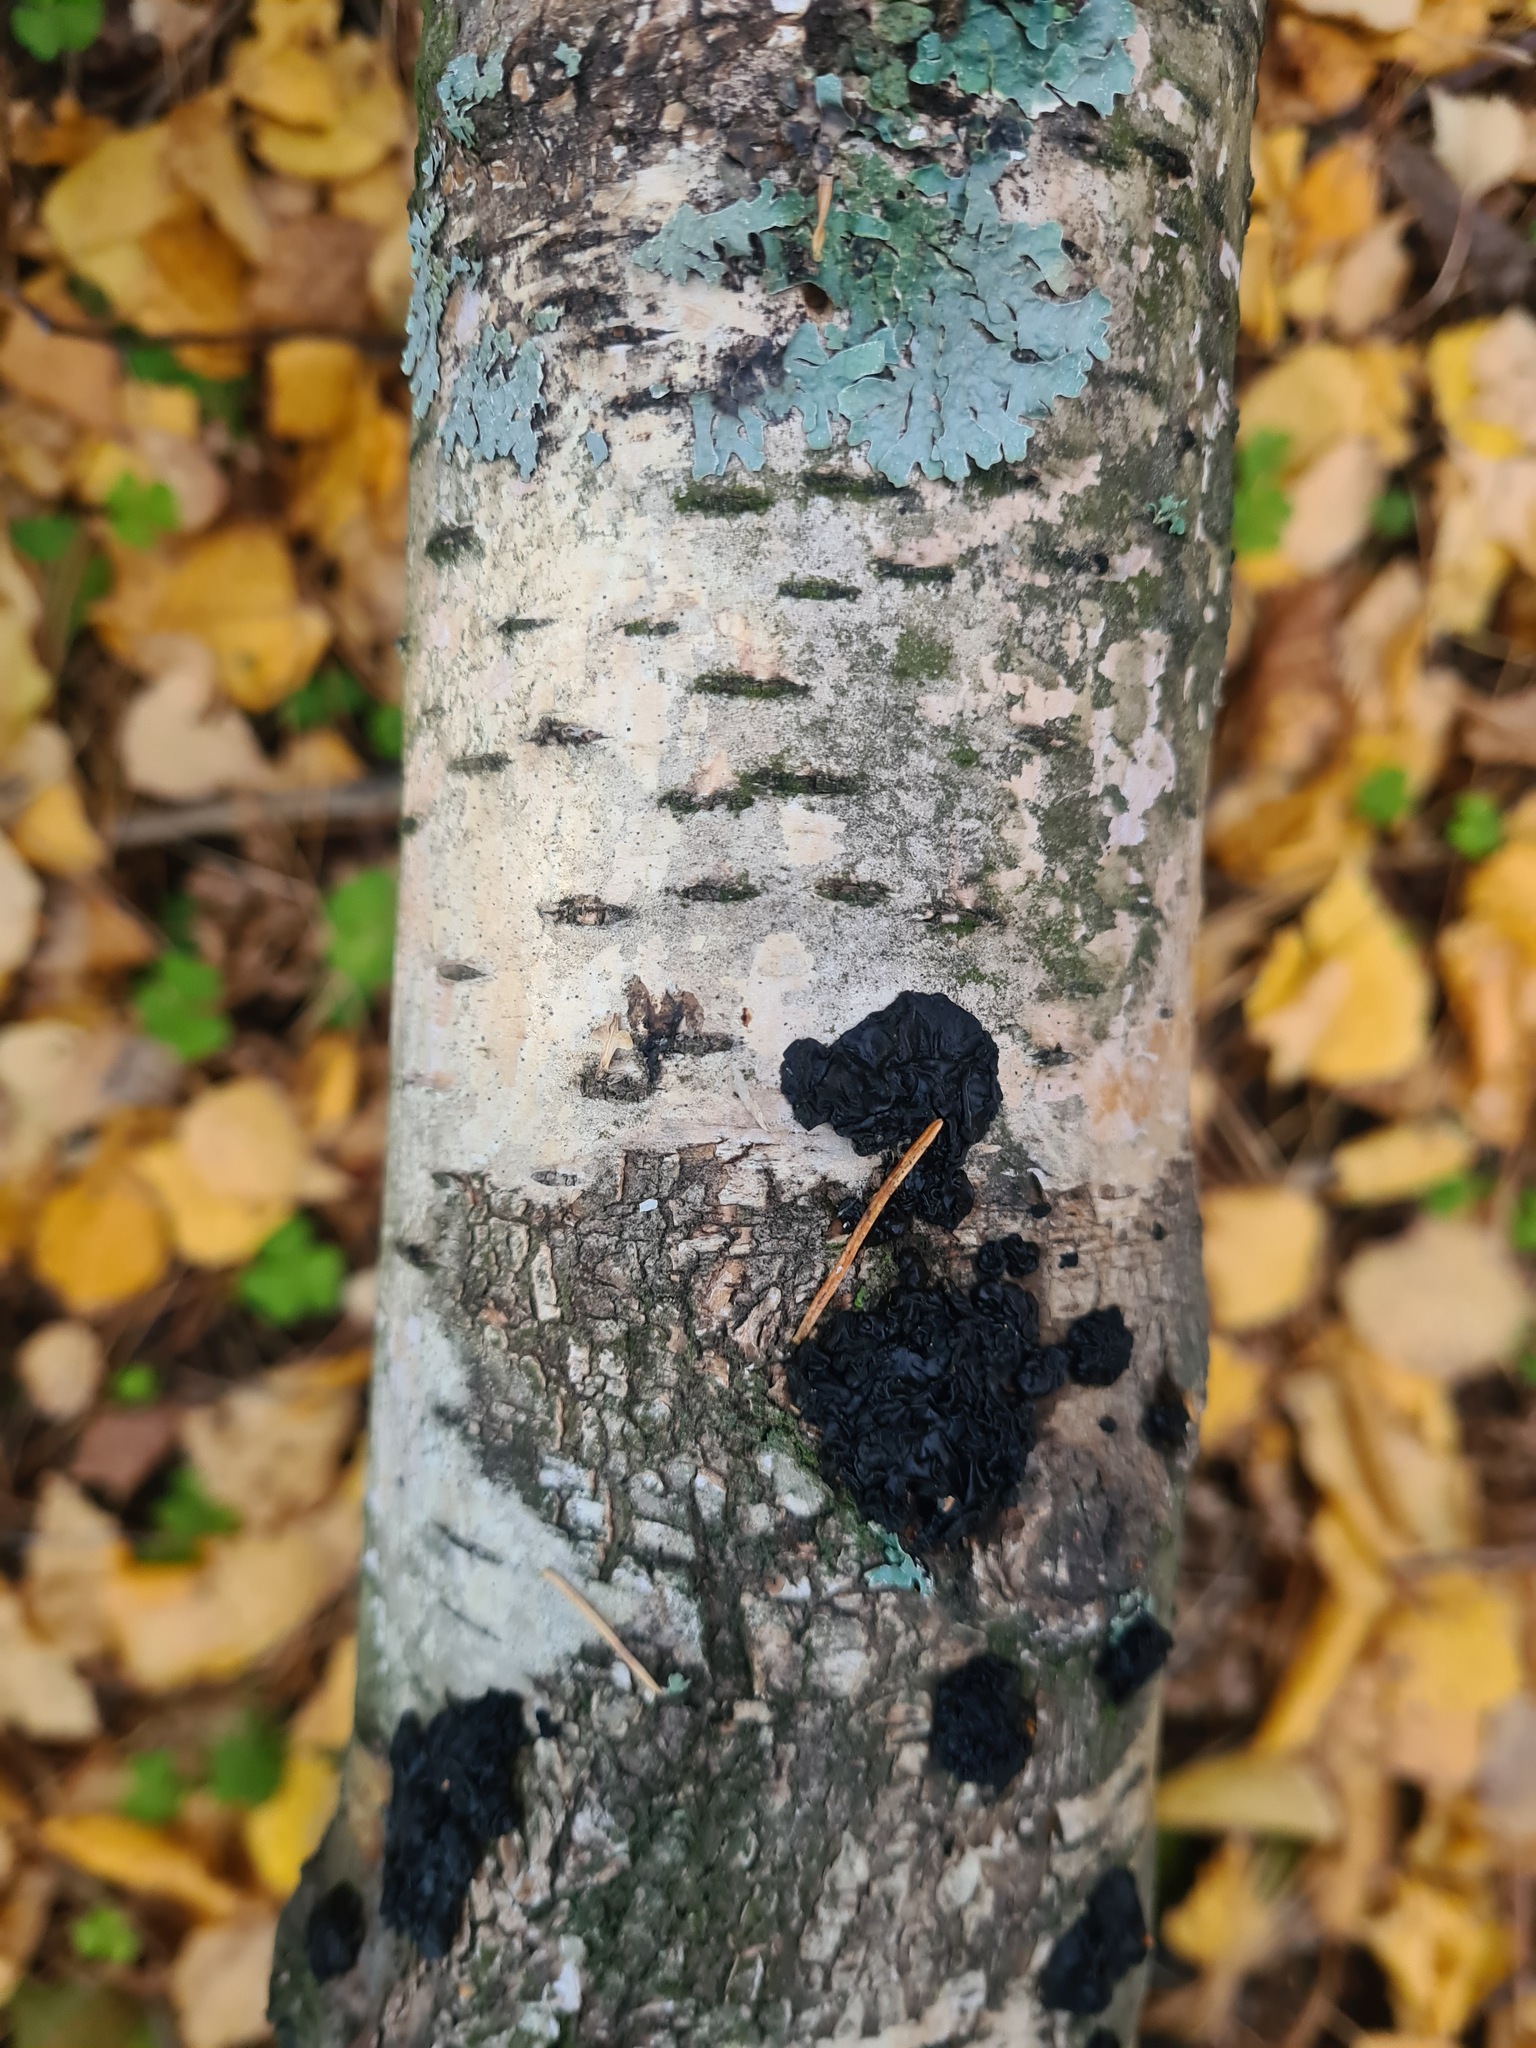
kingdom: Fungi
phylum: Basidiomycota
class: Agaricomycetes
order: Auriculariales
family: Auriculariaceae
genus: Exidia
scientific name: Exidia glandulosa
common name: Witches' butter
